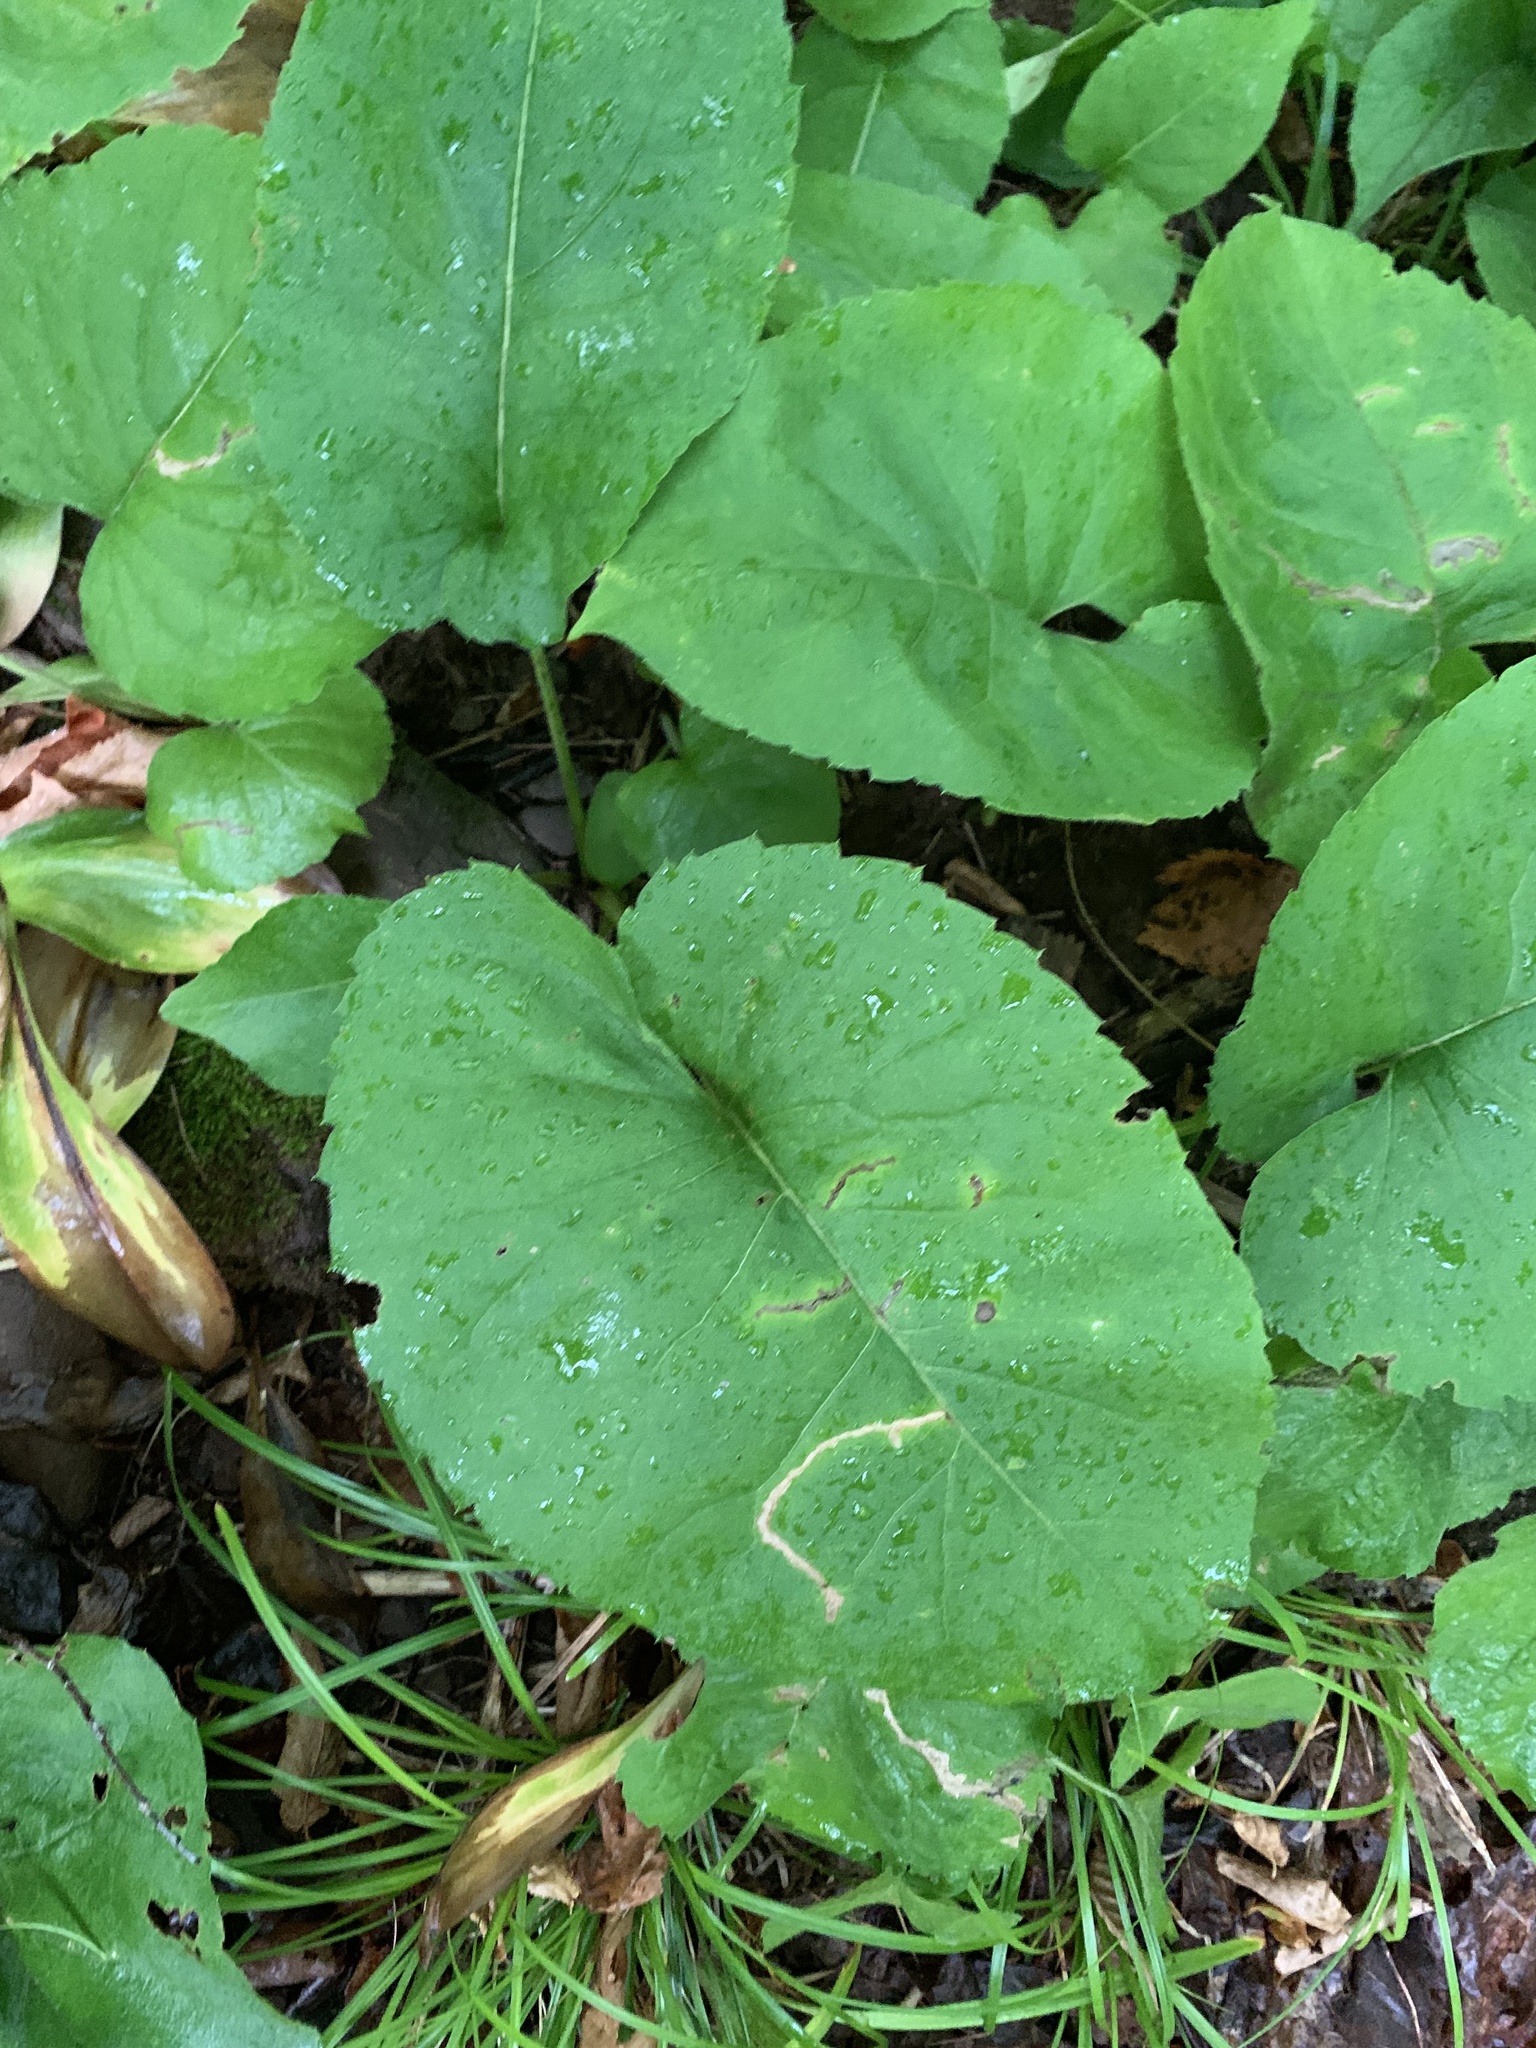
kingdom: Plantae
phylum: Tracheophyta
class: Magnoliopsida
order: Asterales
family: Asteraceae
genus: Eurybia
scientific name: Eurybia macrophylla
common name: Big-leaved aster
